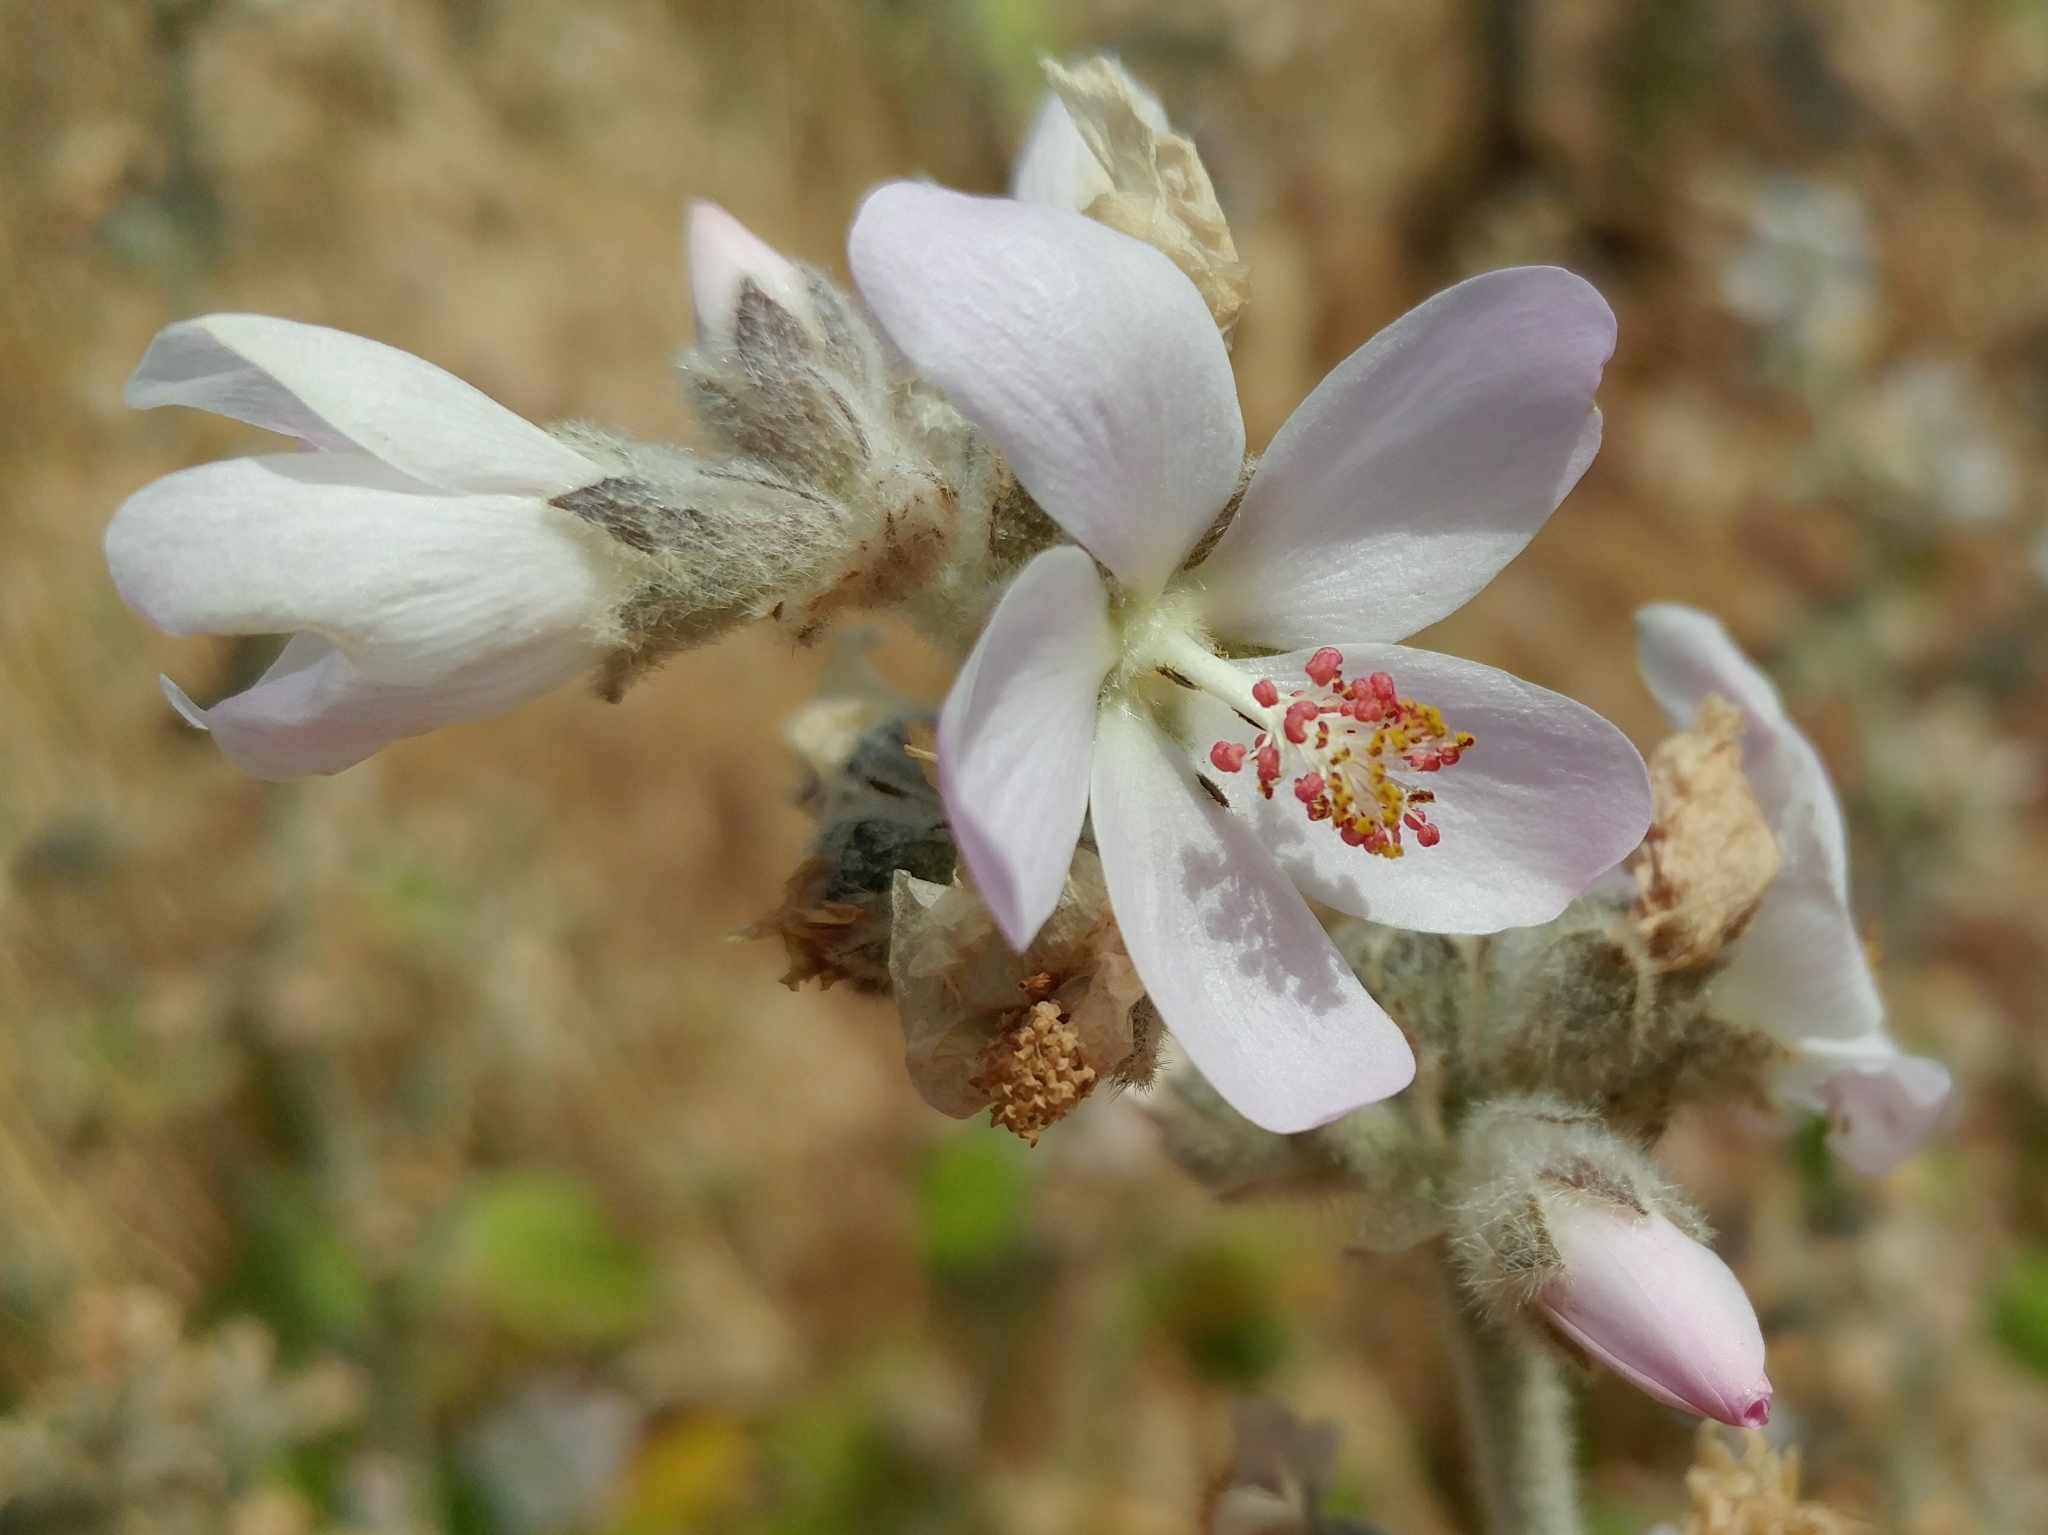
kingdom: Plantae
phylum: Tracheophyta
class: Magnoliopsida
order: Malvales
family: Malvaceae
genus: Malacothamnus
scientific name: Malacothamnus clementinus
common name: San clemente island bush-mallow
